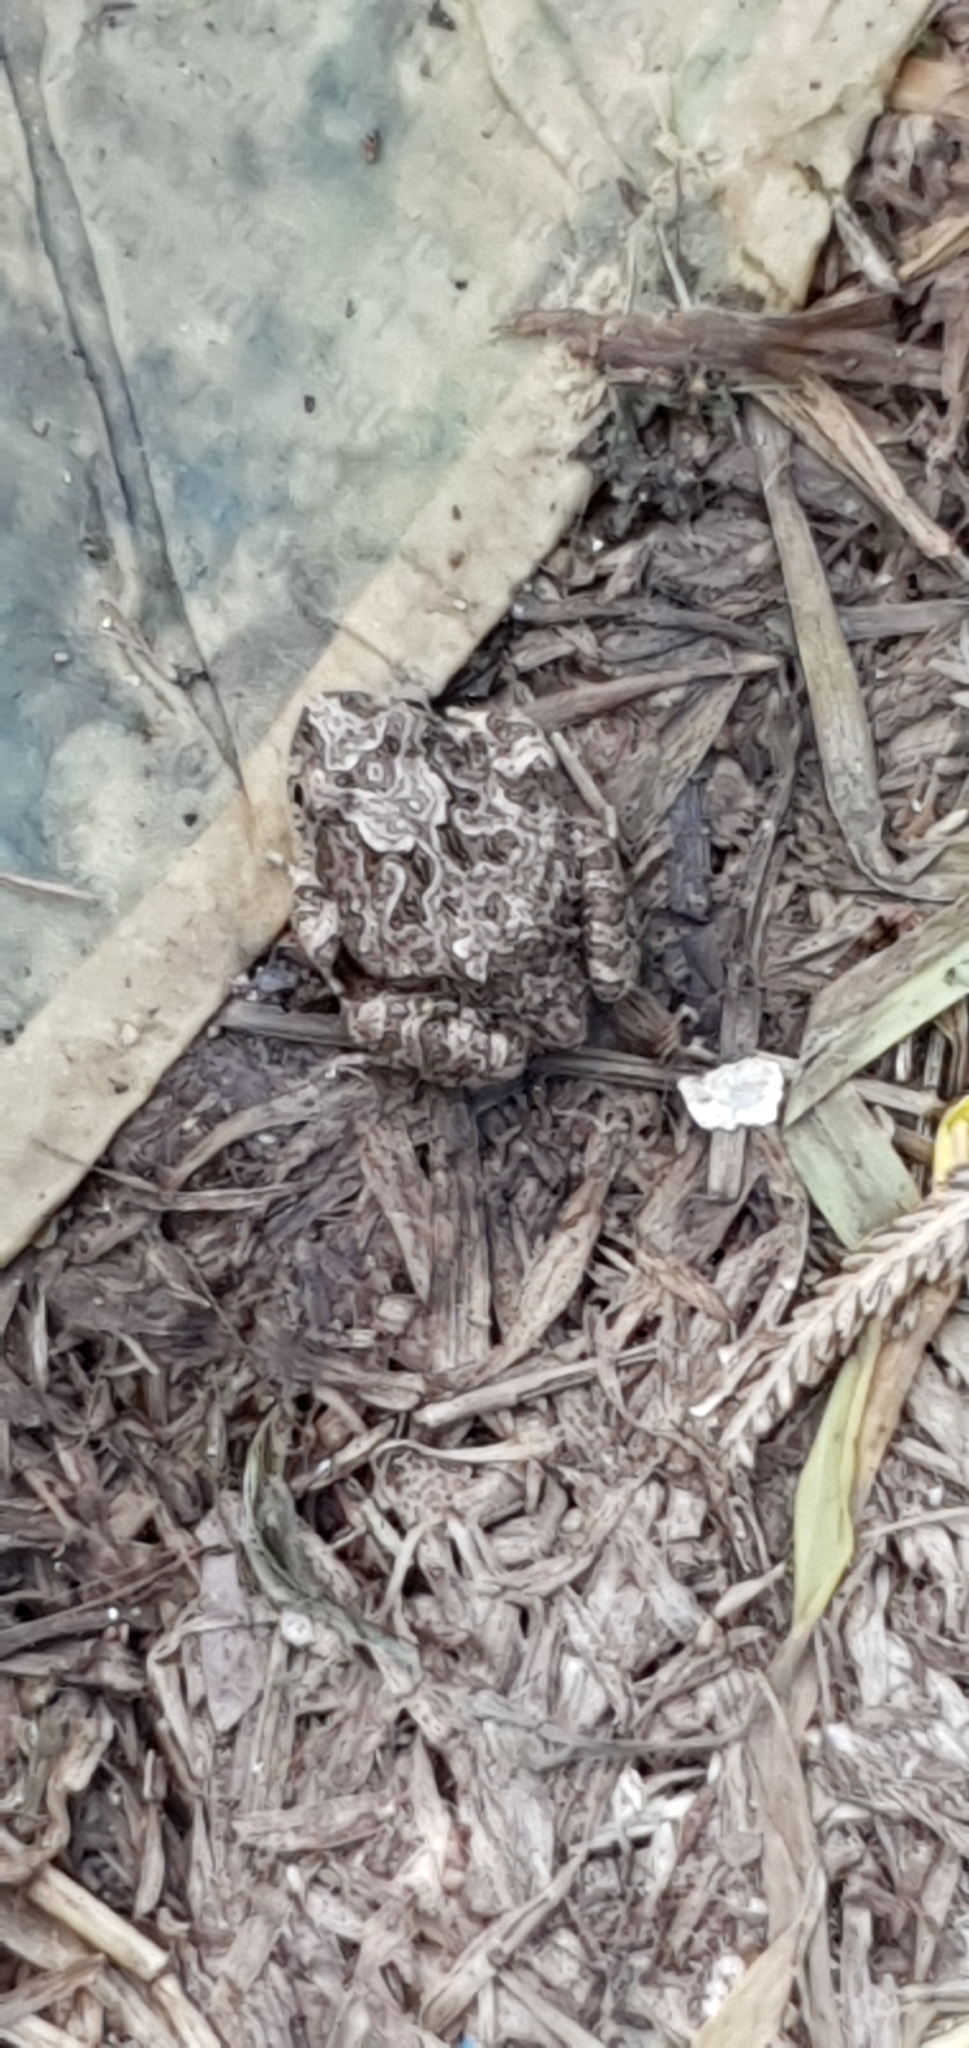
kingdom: Animalia
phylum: Chordata
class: Amphibia
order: Anura
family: Limnodynastidae
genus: Platyplectrum
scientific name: Platyplectrum ornatum
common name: Ornate burrowing frog
